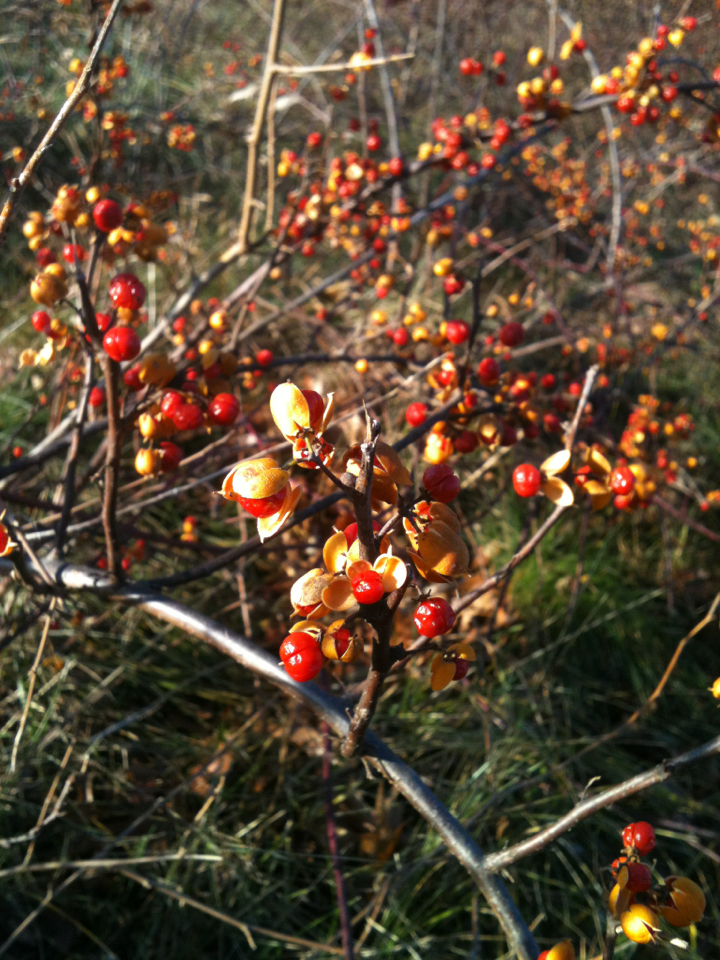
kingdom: Plantae
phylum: Tracheophyta
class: Magnoliopsida
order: Celastrales
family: Celastraceae
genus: Celastrus
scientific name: Celastrus orbiculatus
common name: Oriental bittersweet
